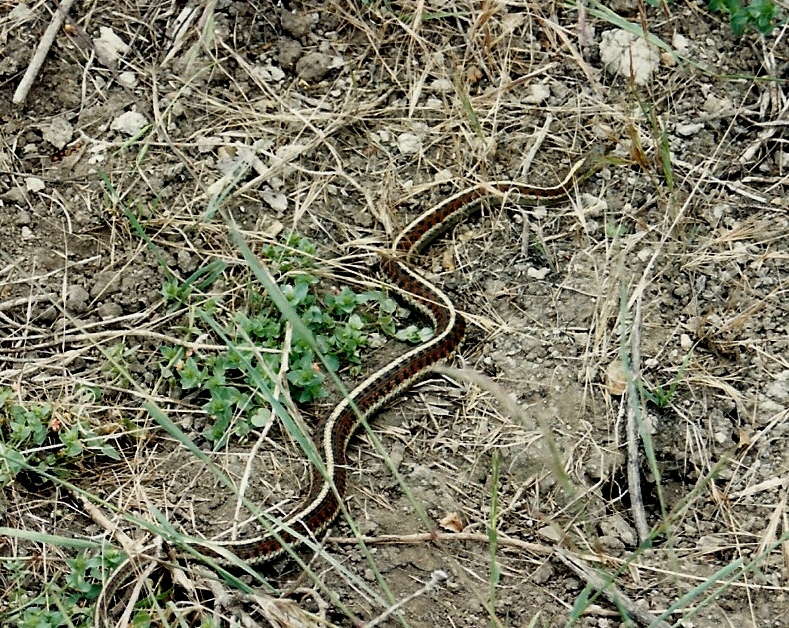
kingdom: Animalia
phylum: Chordata
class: Squamata
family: Colubridae
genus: Thamnophis
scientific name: Thamnophis elegans
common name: Western terrestrial garter snake
